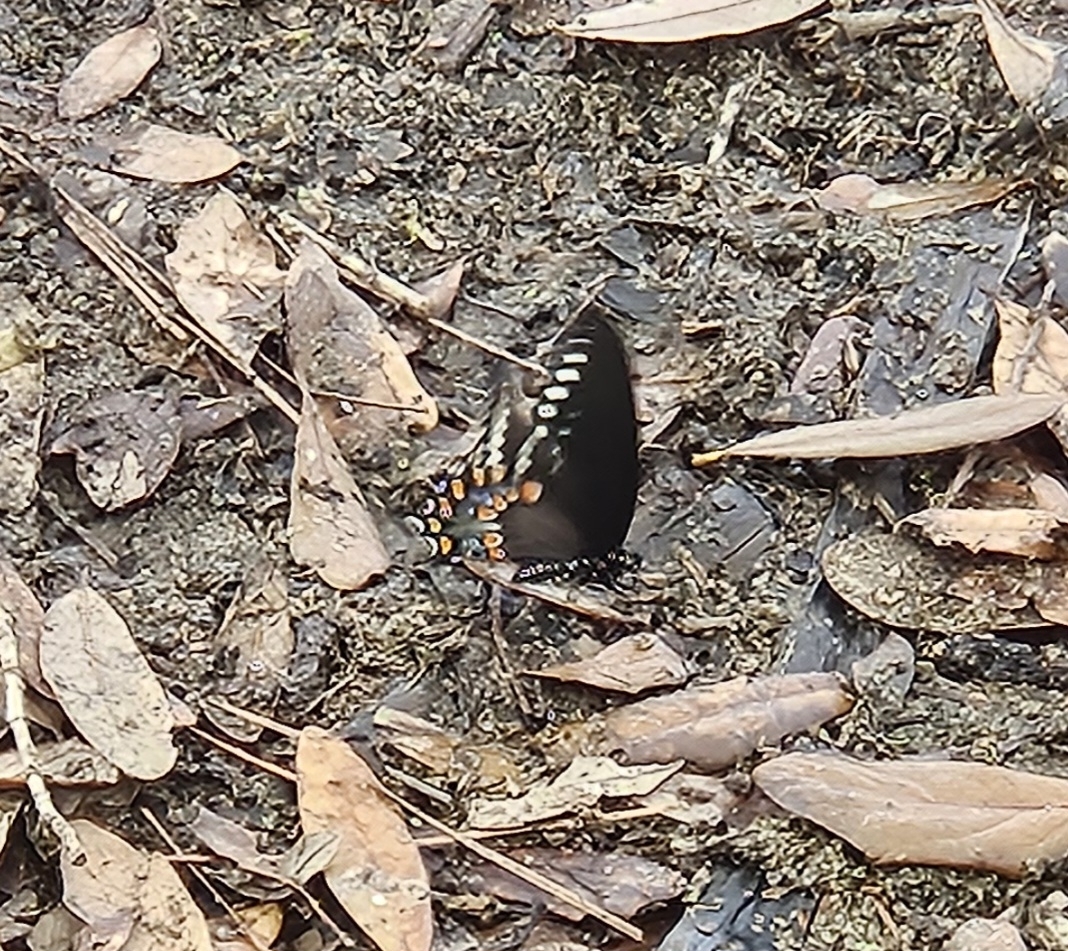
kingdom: Animalia
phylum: Arthropoda
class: Insecta
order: Lepidoptera
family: Papilionidae
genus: Papilio
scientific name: Papilio troilus
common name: Spicebush swallowtail
